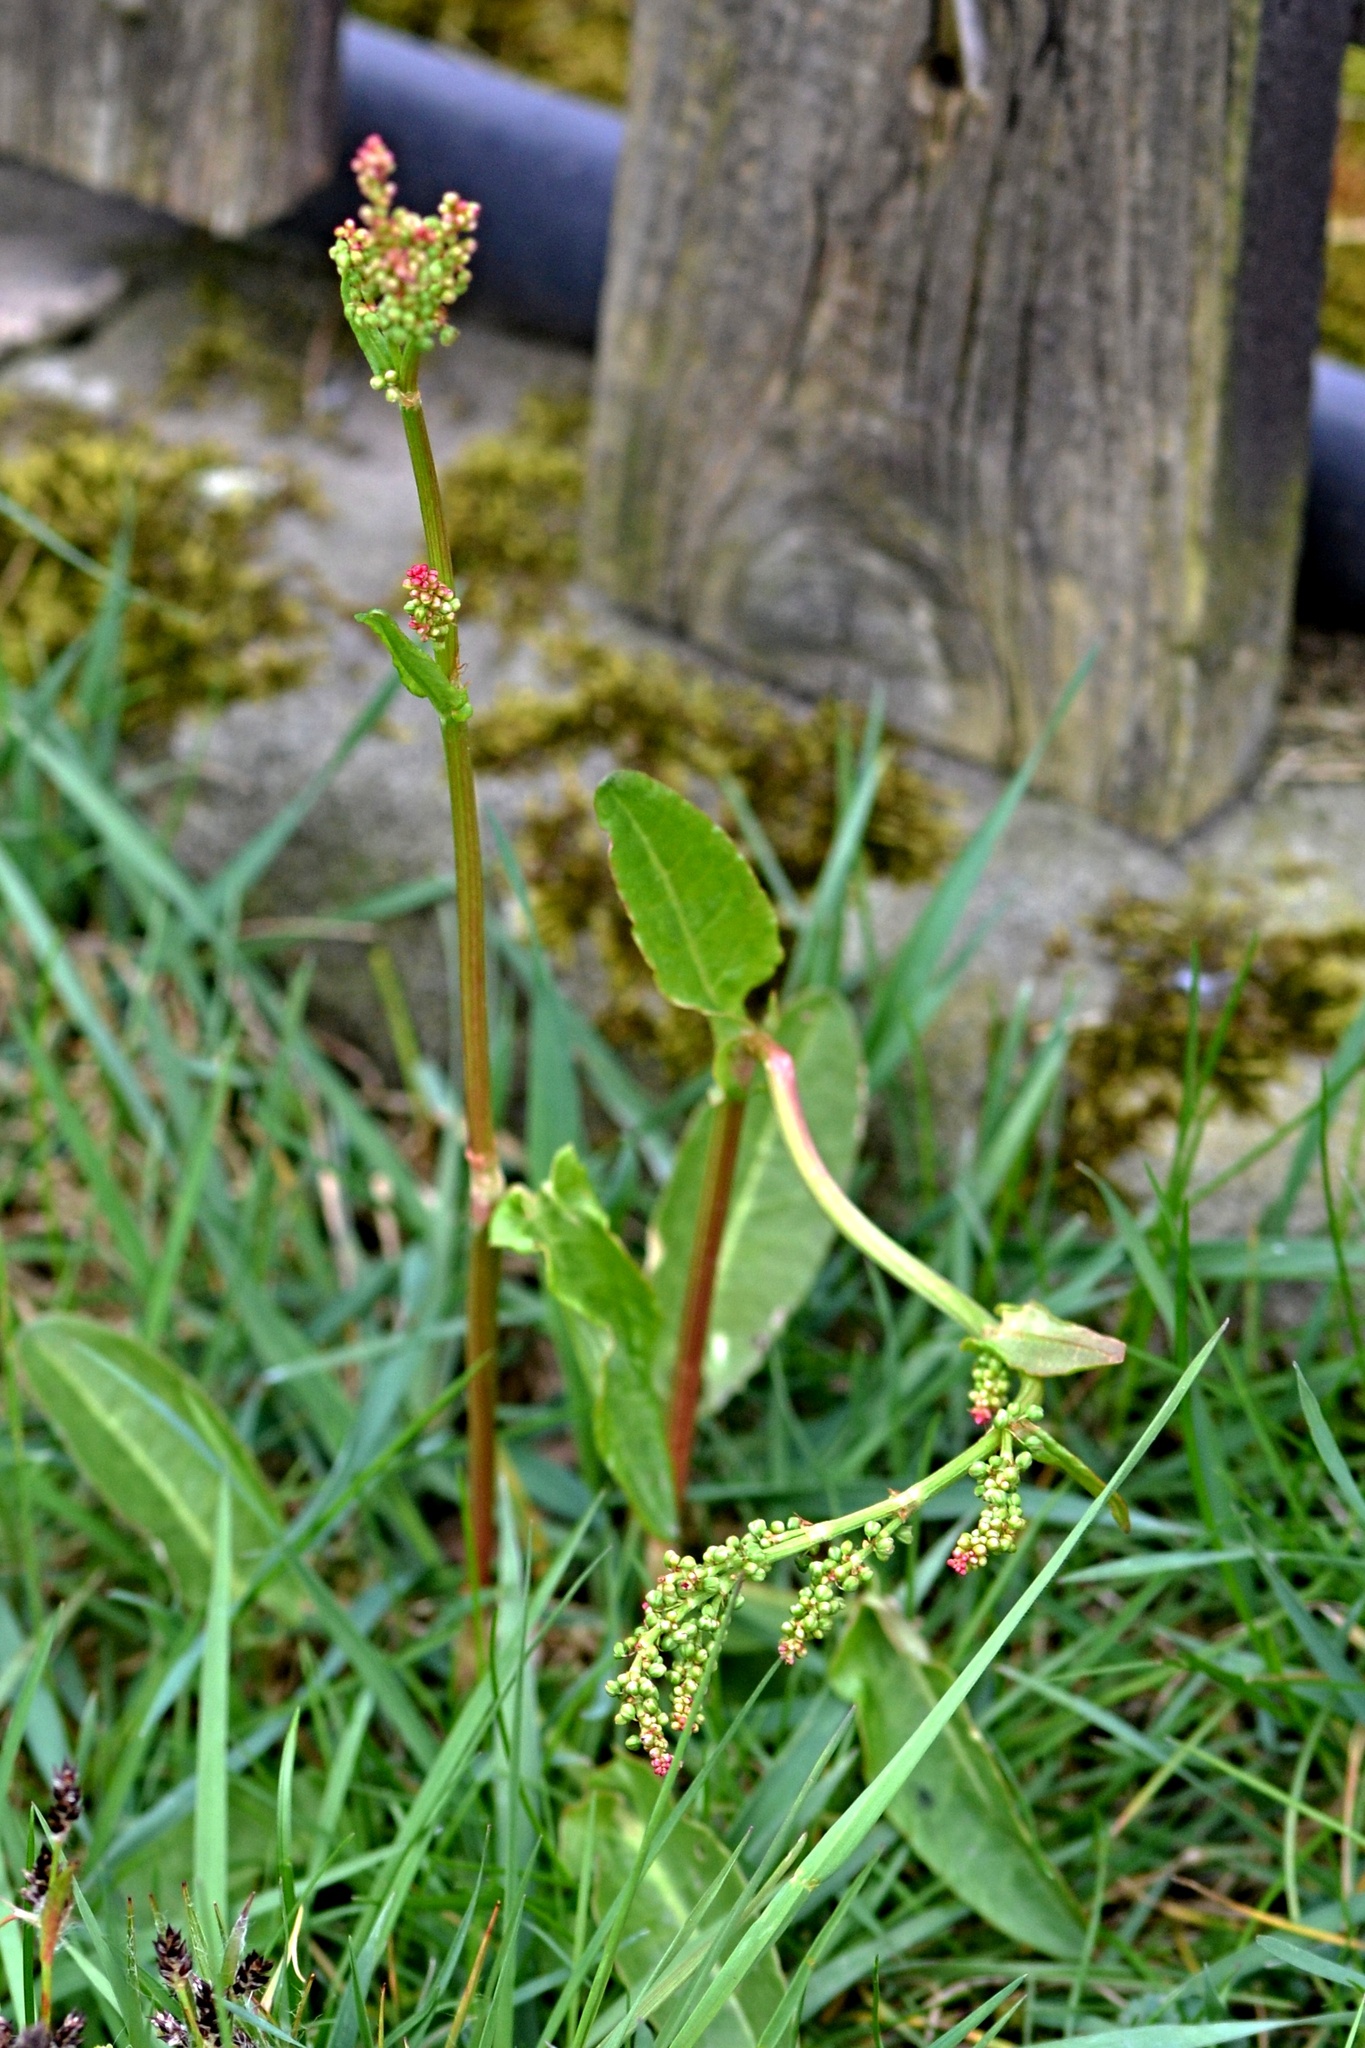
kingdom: Plantae
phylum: Tracheophyta
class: Magnoliopsida
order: Caryophyllales
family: Polygonaceae
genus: Rumex
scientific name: Rumex acetosa
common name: Garden sorrel
